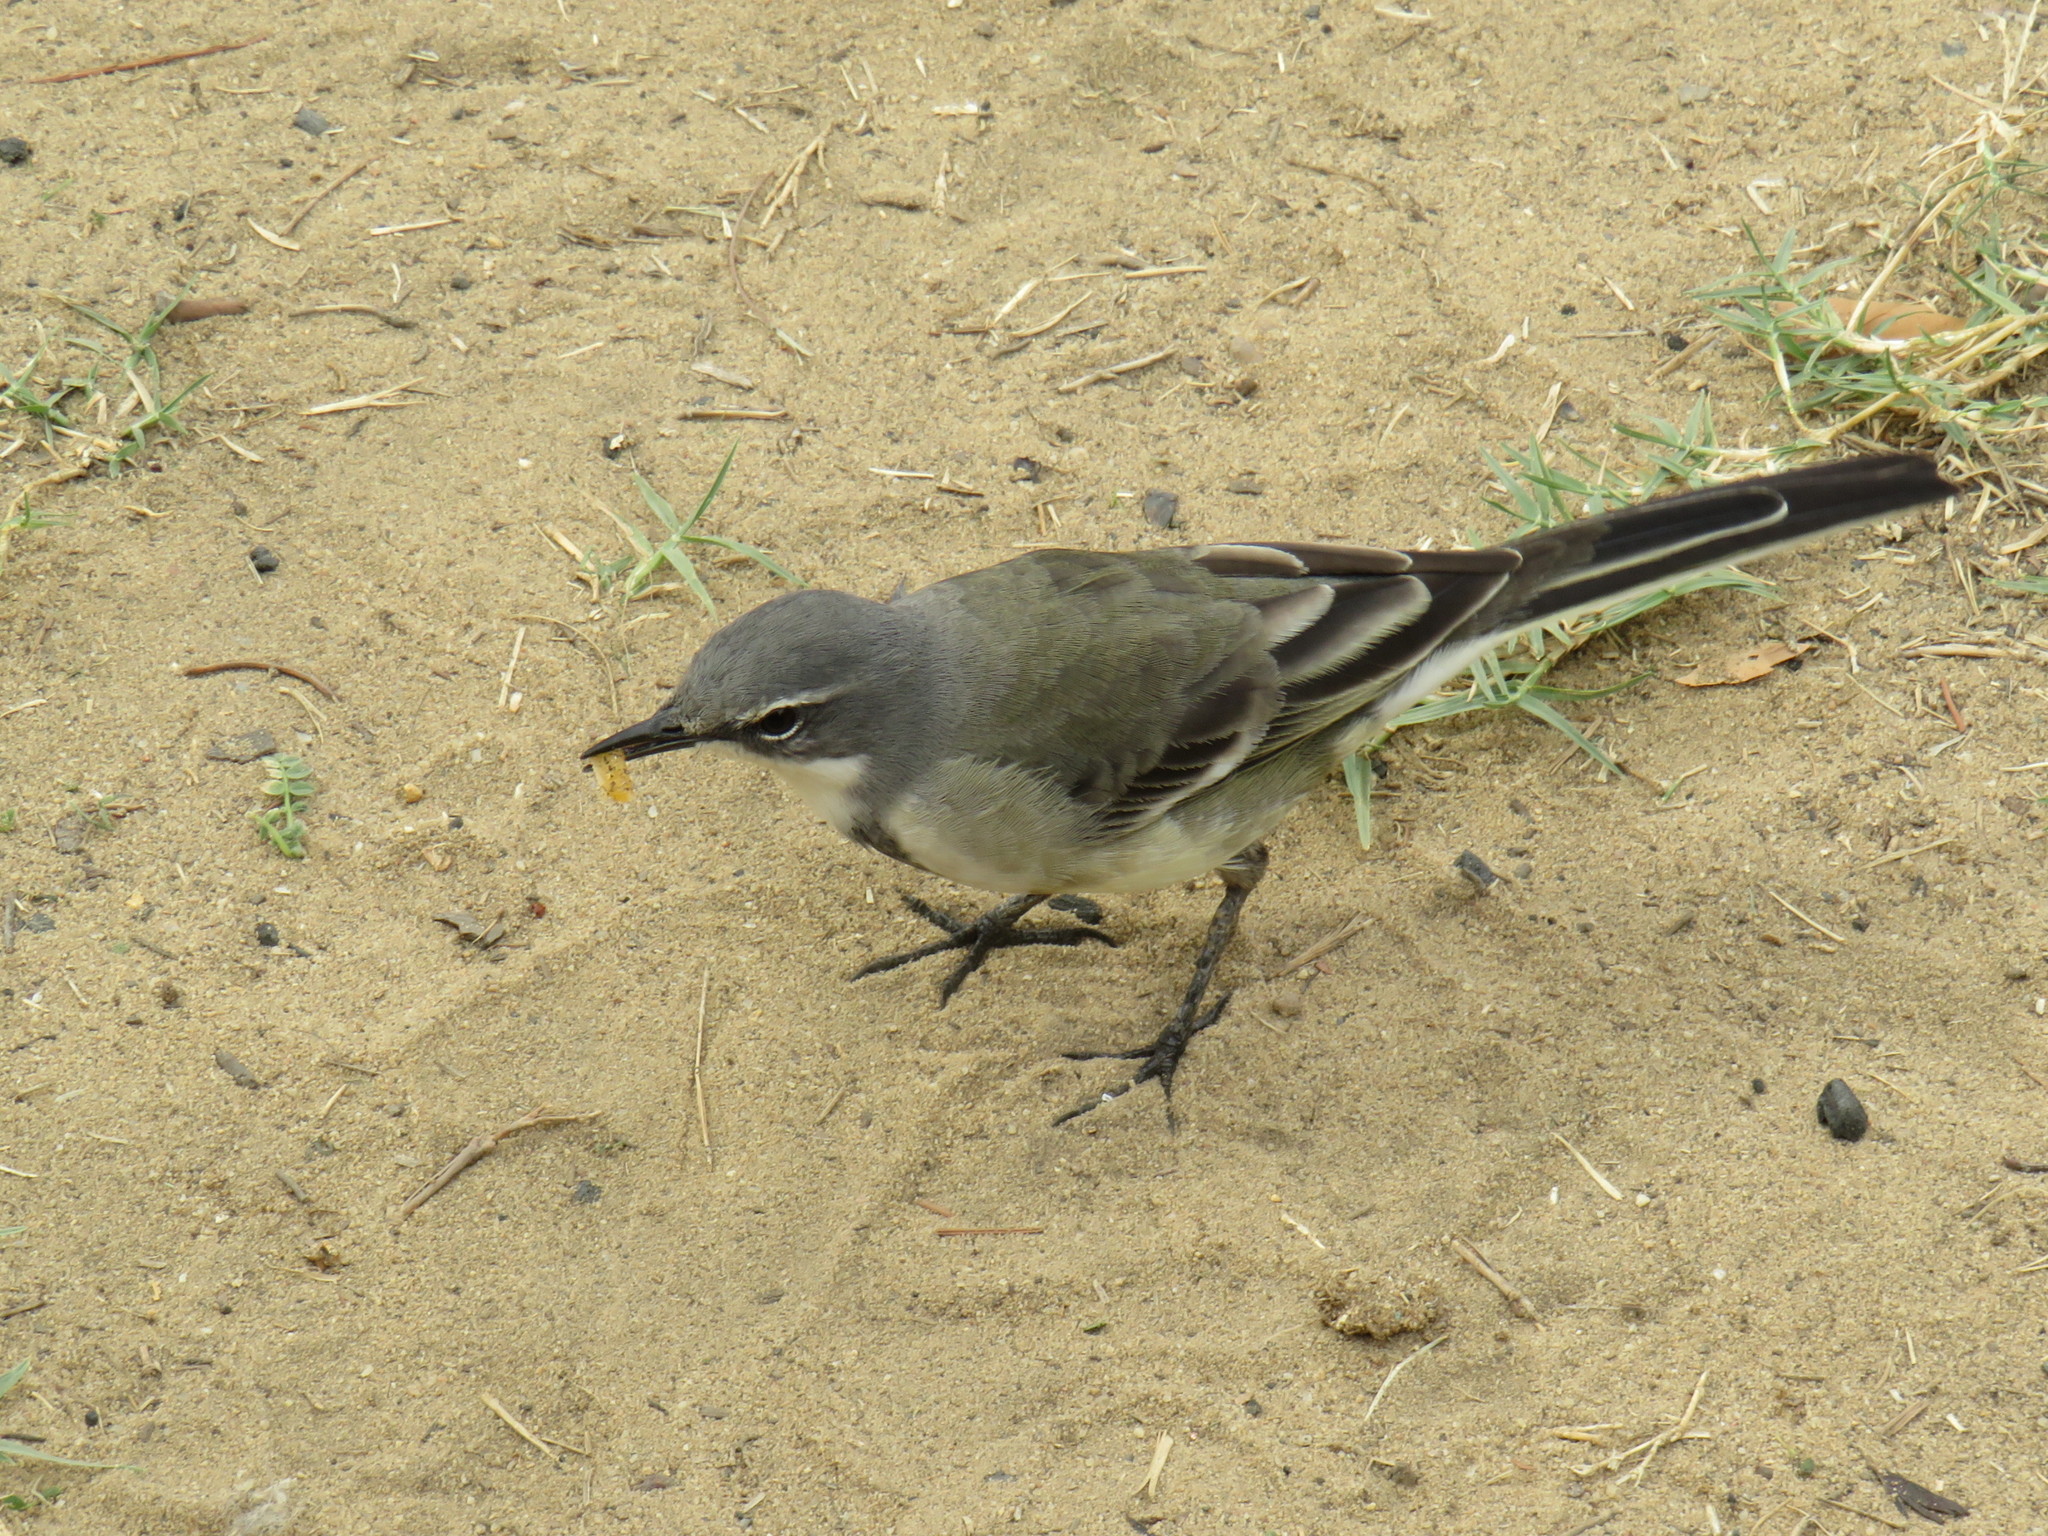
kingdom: Animalia
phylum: Chordata
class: Aves
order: Passeriformes
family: Motacillidae
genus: Motacilla
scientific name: Motacilla capensis
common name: Cape wagtail
